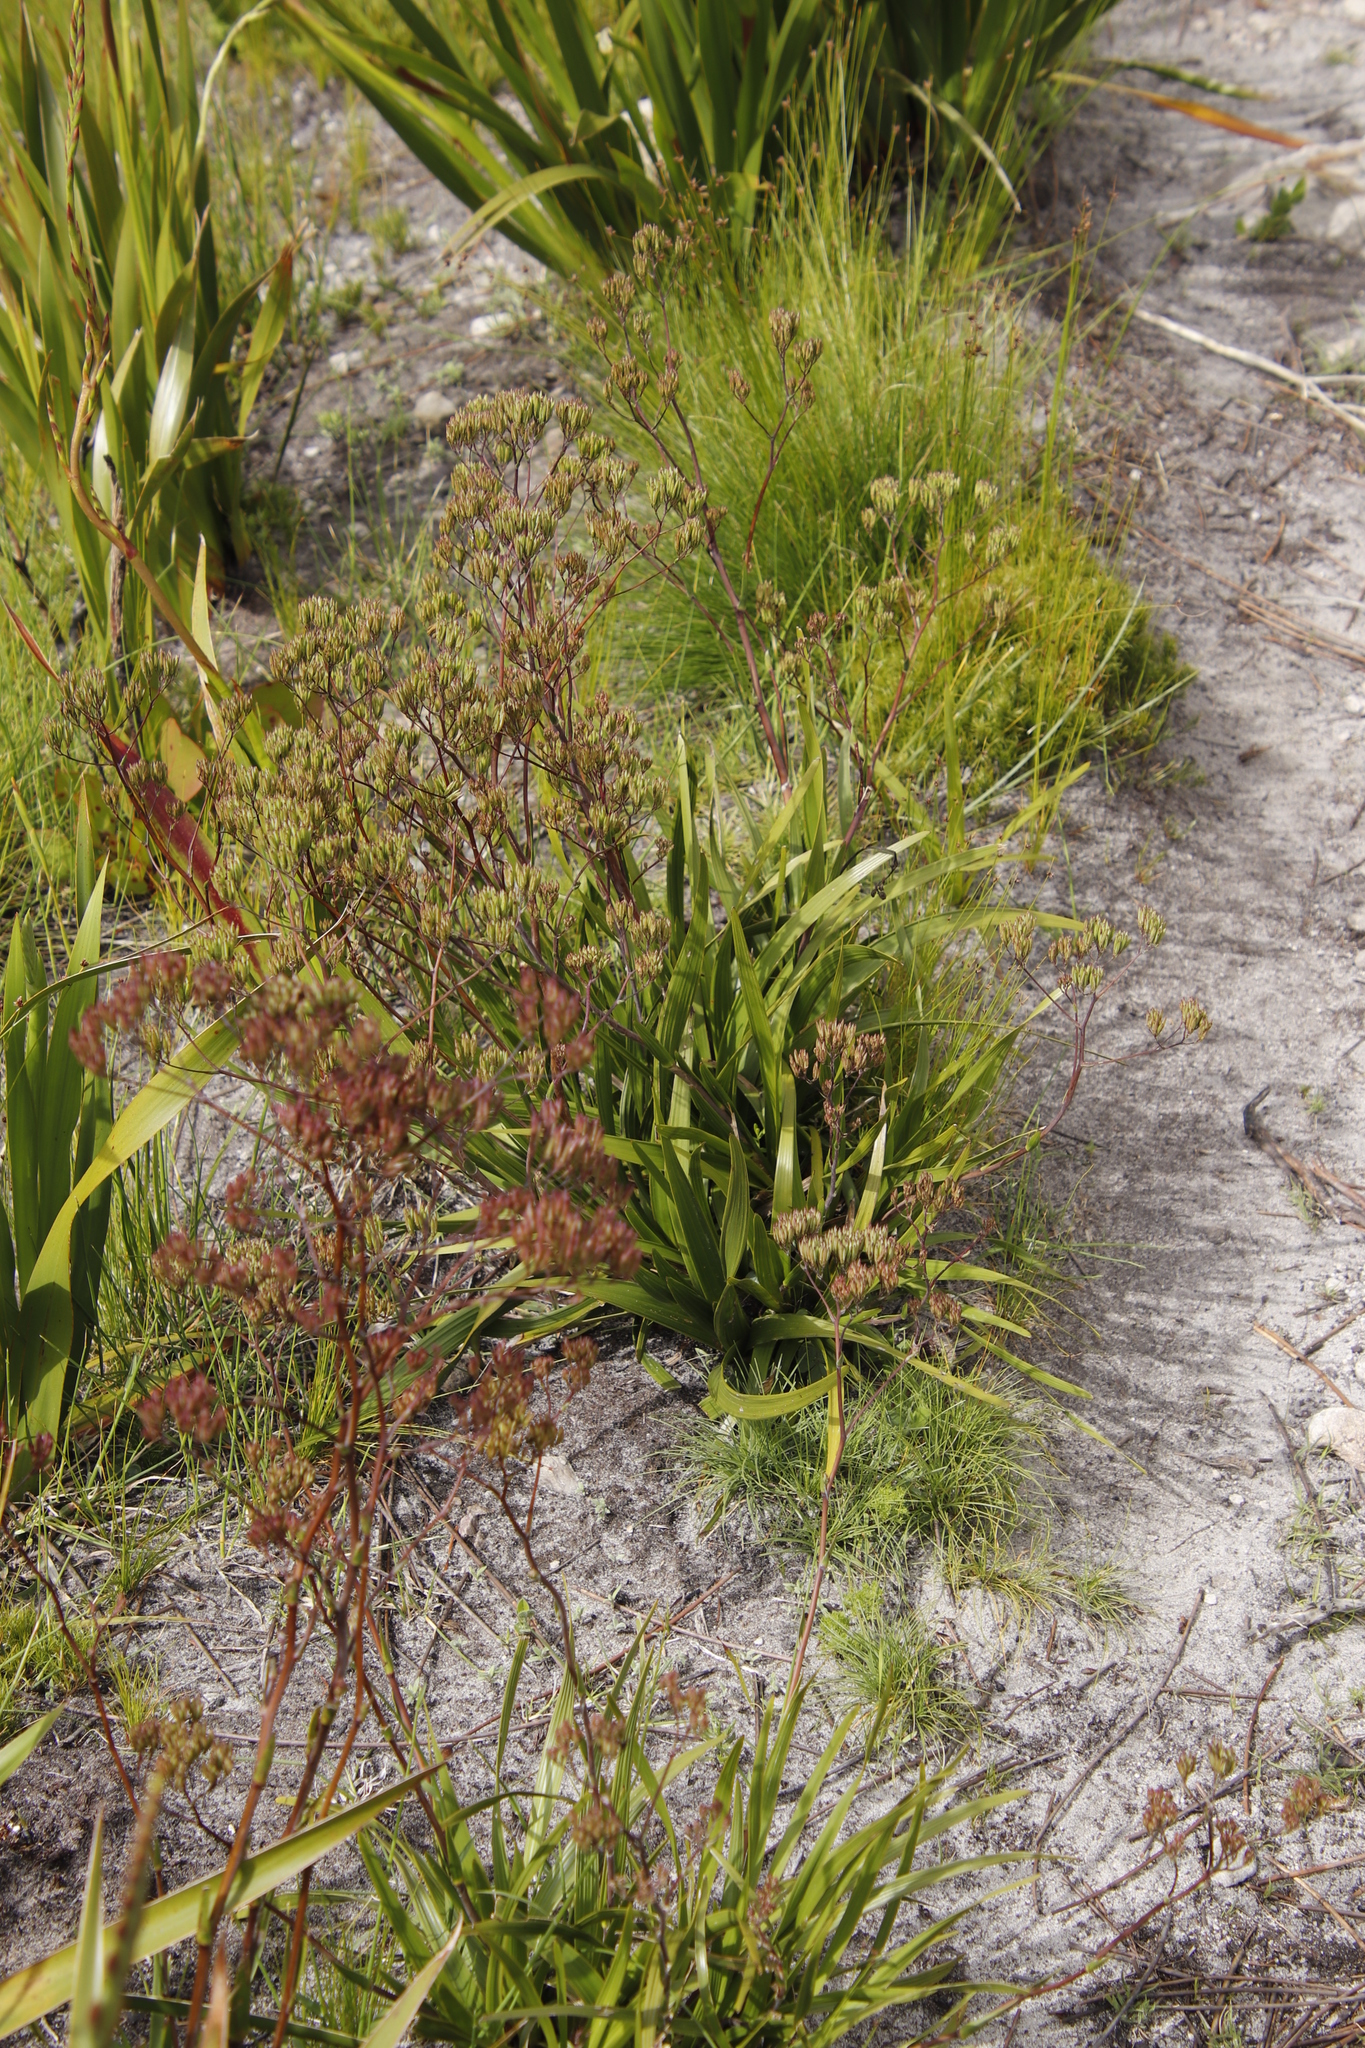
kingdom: Plantae
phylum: Tracheophyta
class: Magnoliopsida
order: Asterales
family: Asteraceae
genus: Corymbium
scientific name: Corymbium glabrum
